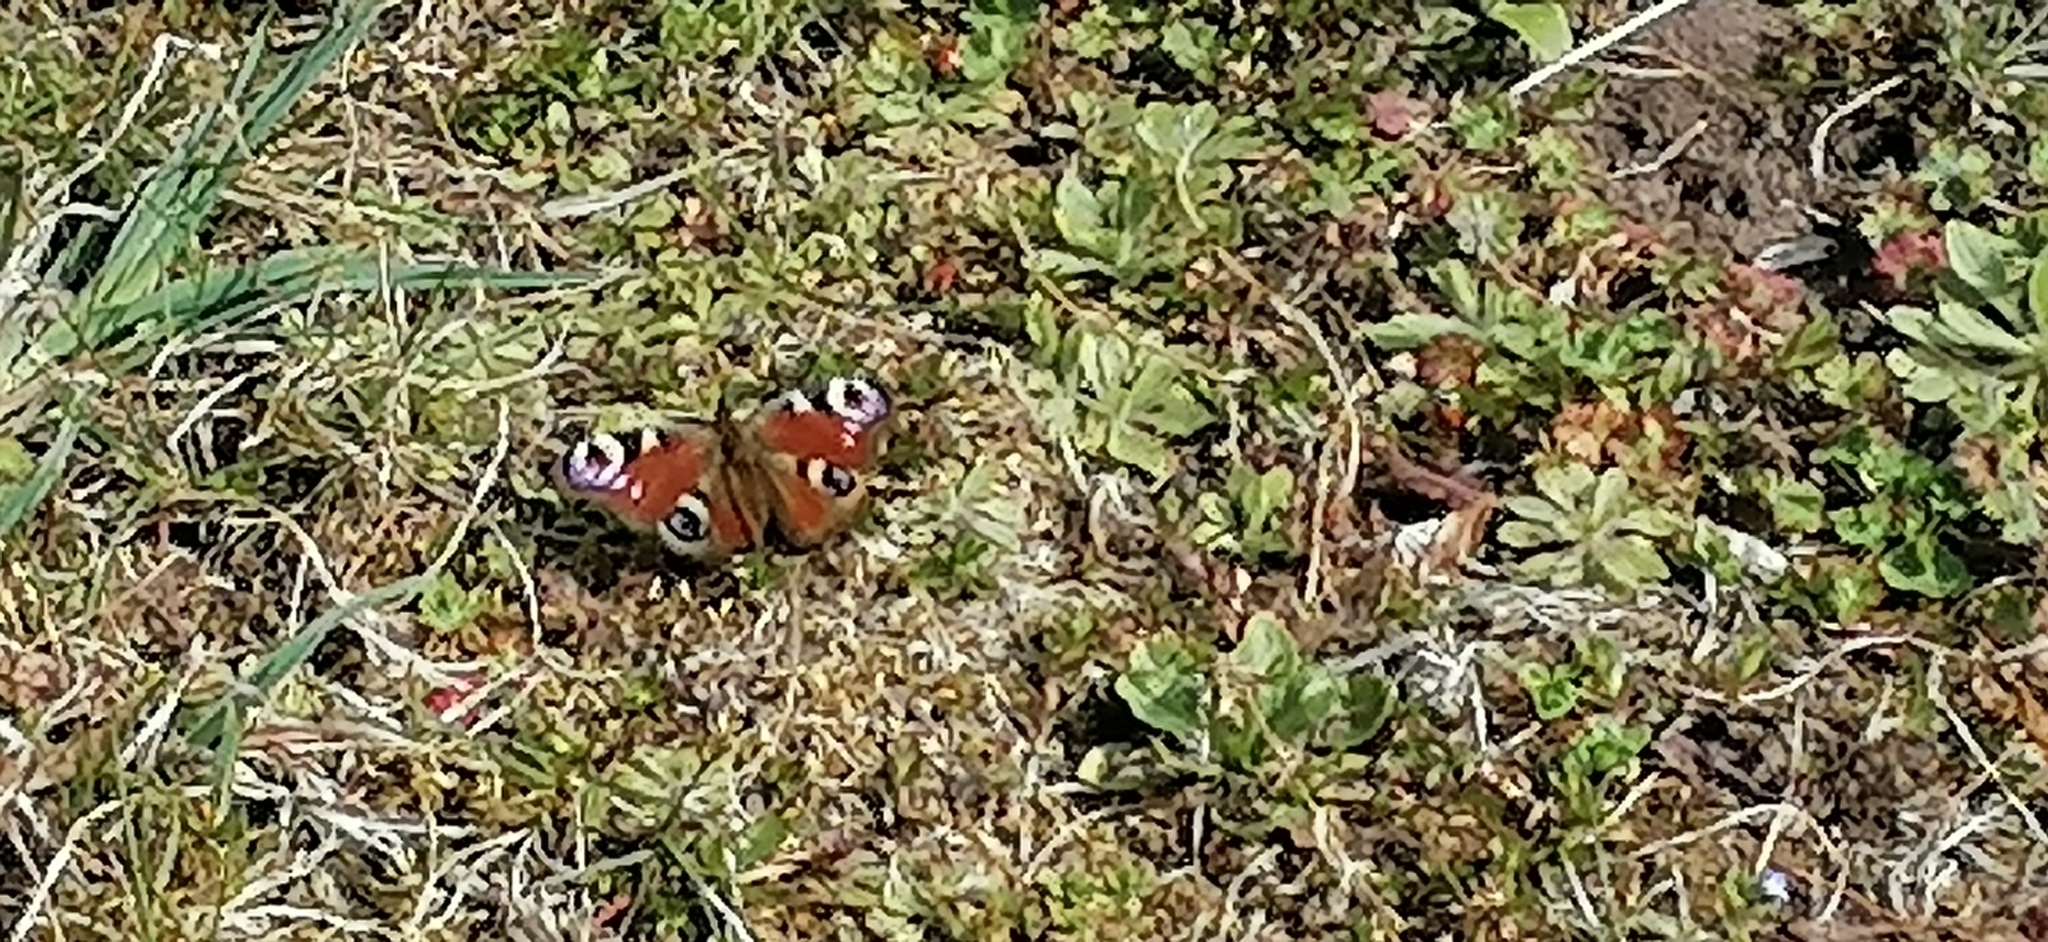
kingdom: Animalia
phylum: Arthropoda
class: Insecta
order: Lepidoptera
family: Nymphalidae
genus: Aglais
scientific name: Aglais io
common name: Peacock
